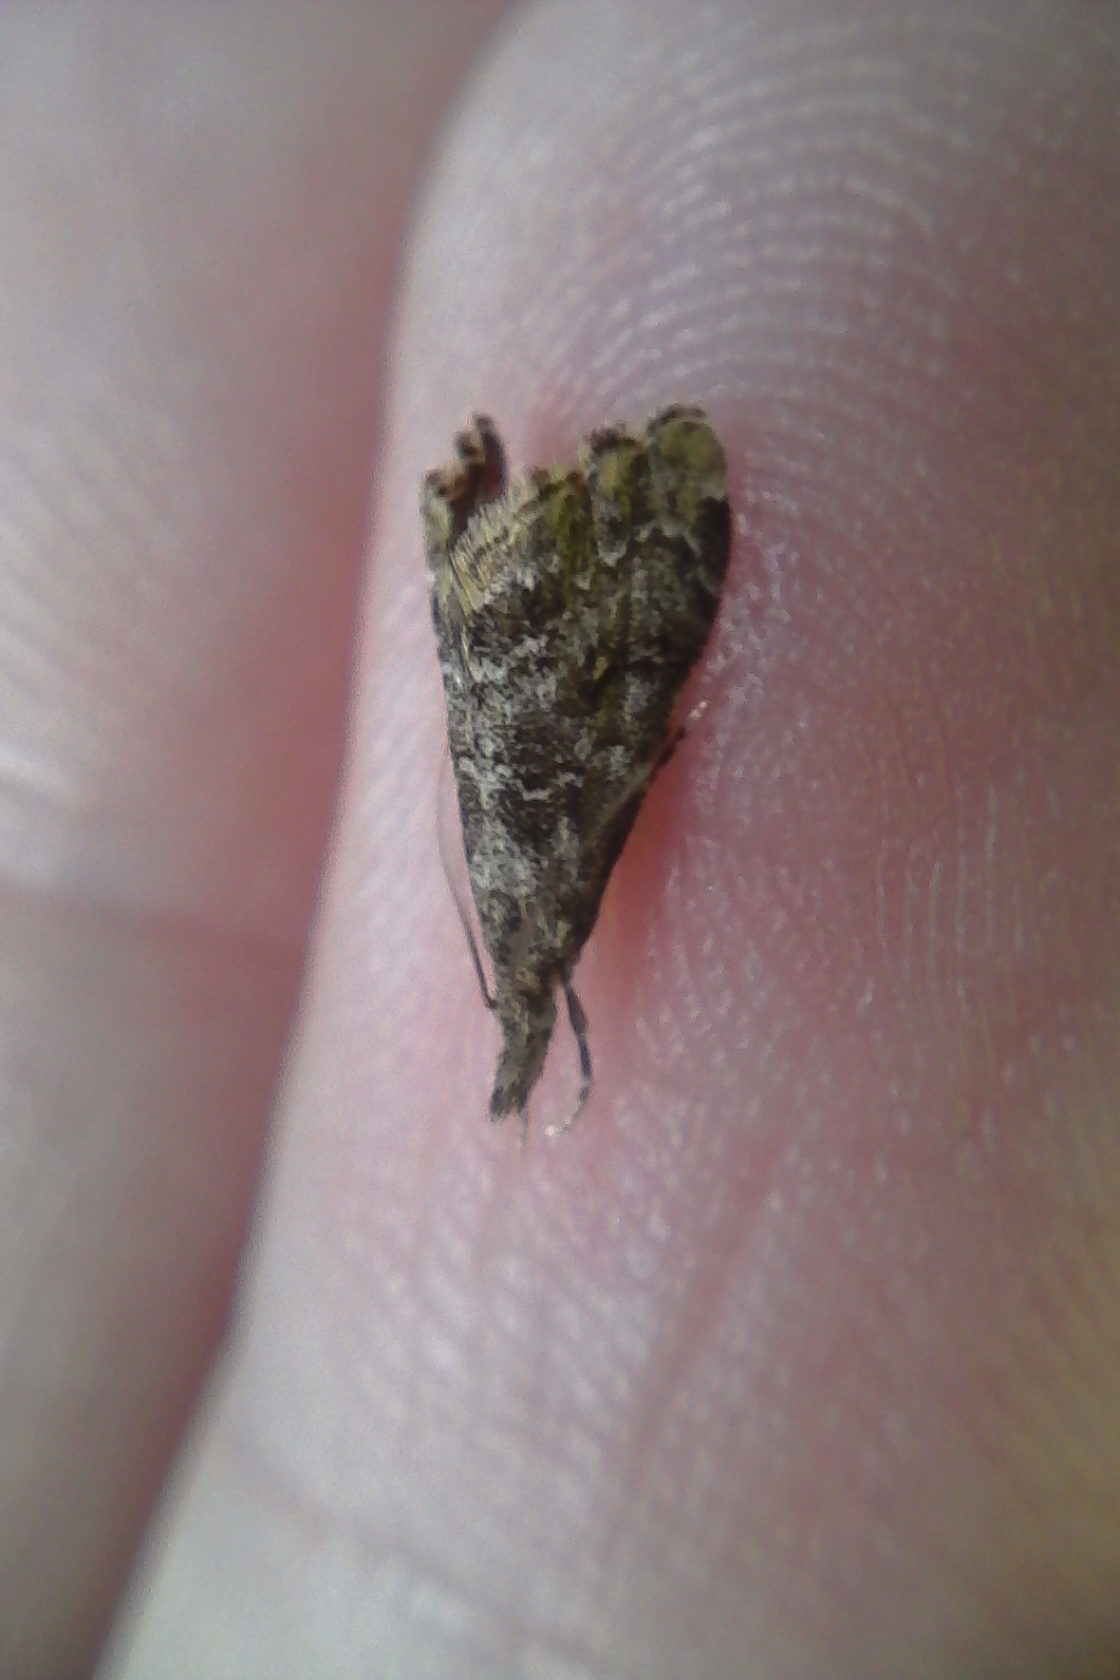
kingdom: Animalia
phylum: Arthropoda
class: Insecta
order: Lepidoptera
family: Crambidae
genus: Glaucocharis
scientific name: Glaucocharis elaina
